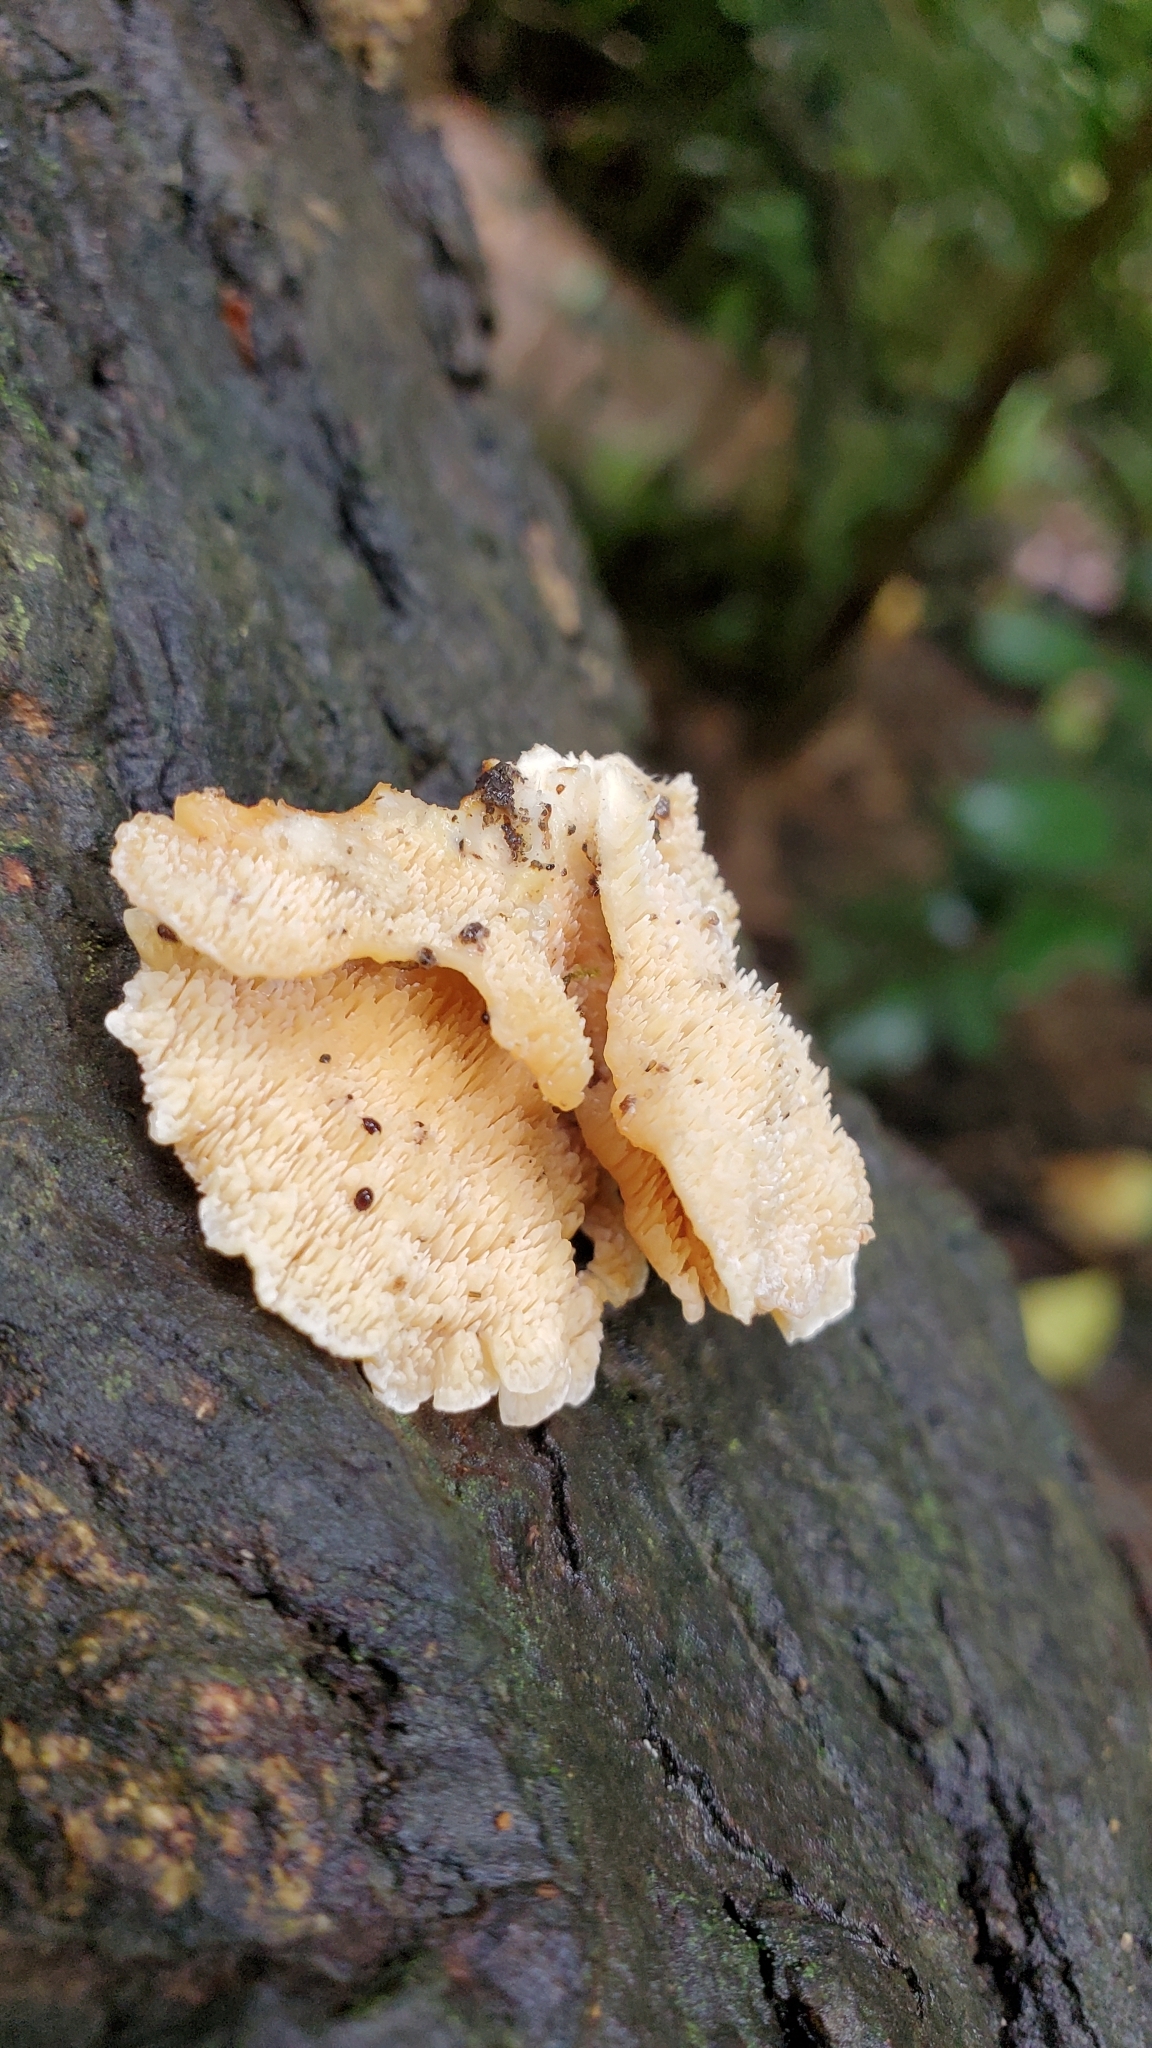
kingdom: Fungi
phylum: Basidiomycota
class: Agaricomycetes
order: Polyporales
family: Cerrenaceae
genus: Cerrena
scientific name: Cerrena zonata
